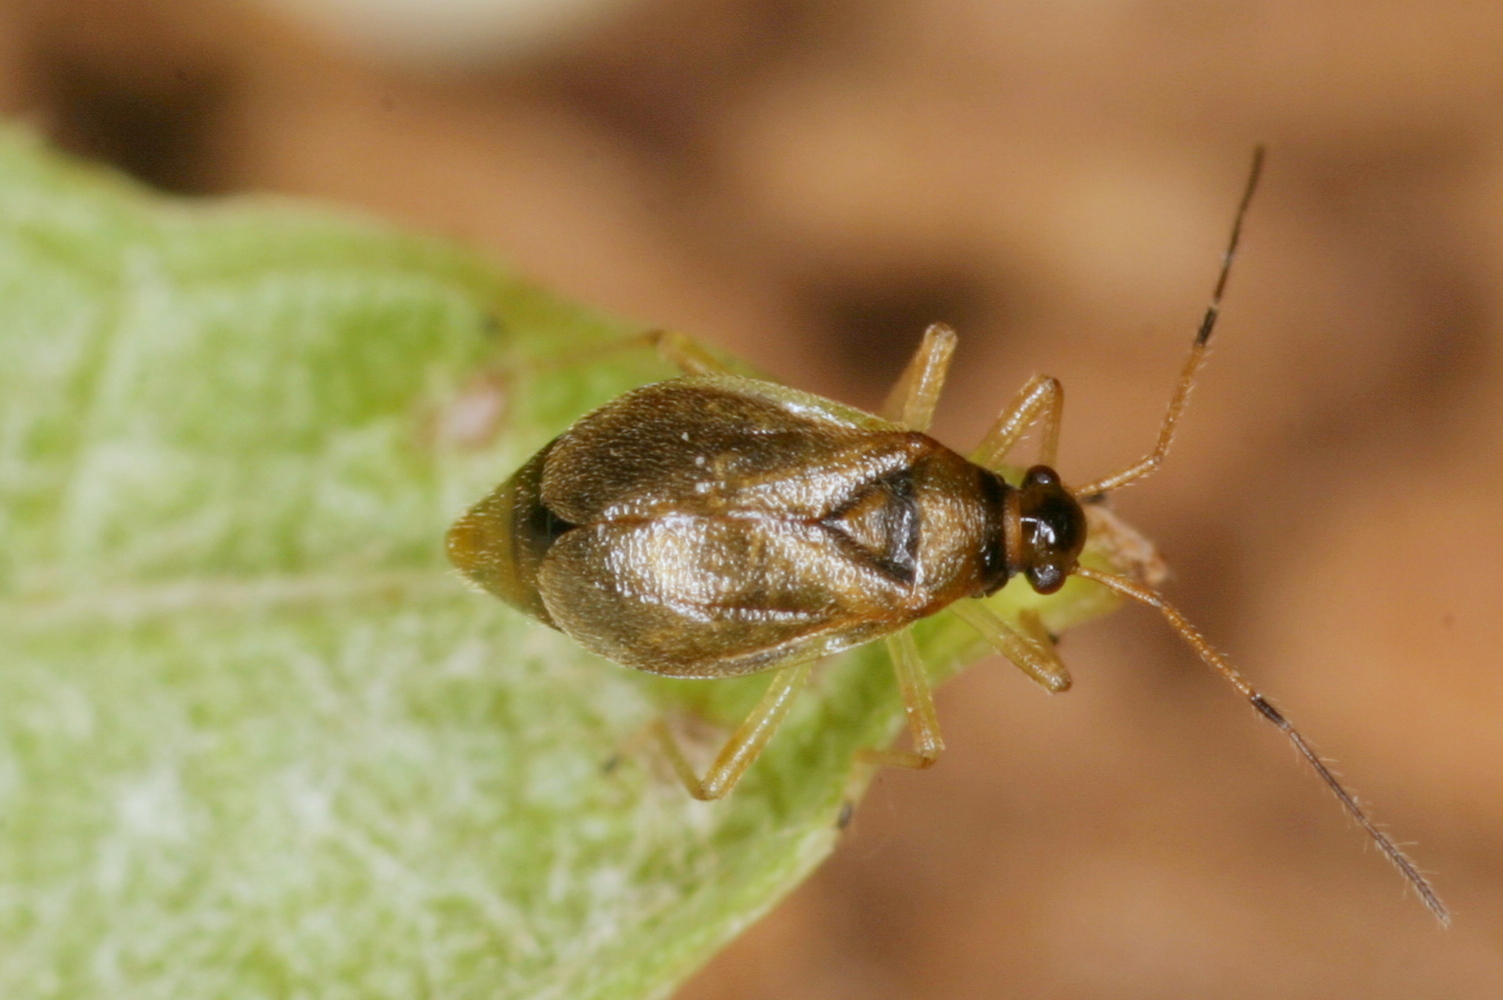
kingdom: Animalia
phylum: Arthropoda
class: Insecta
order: Hemiptera
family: Miridae
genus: Bryocoris
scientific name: Bryocoris pteridis
